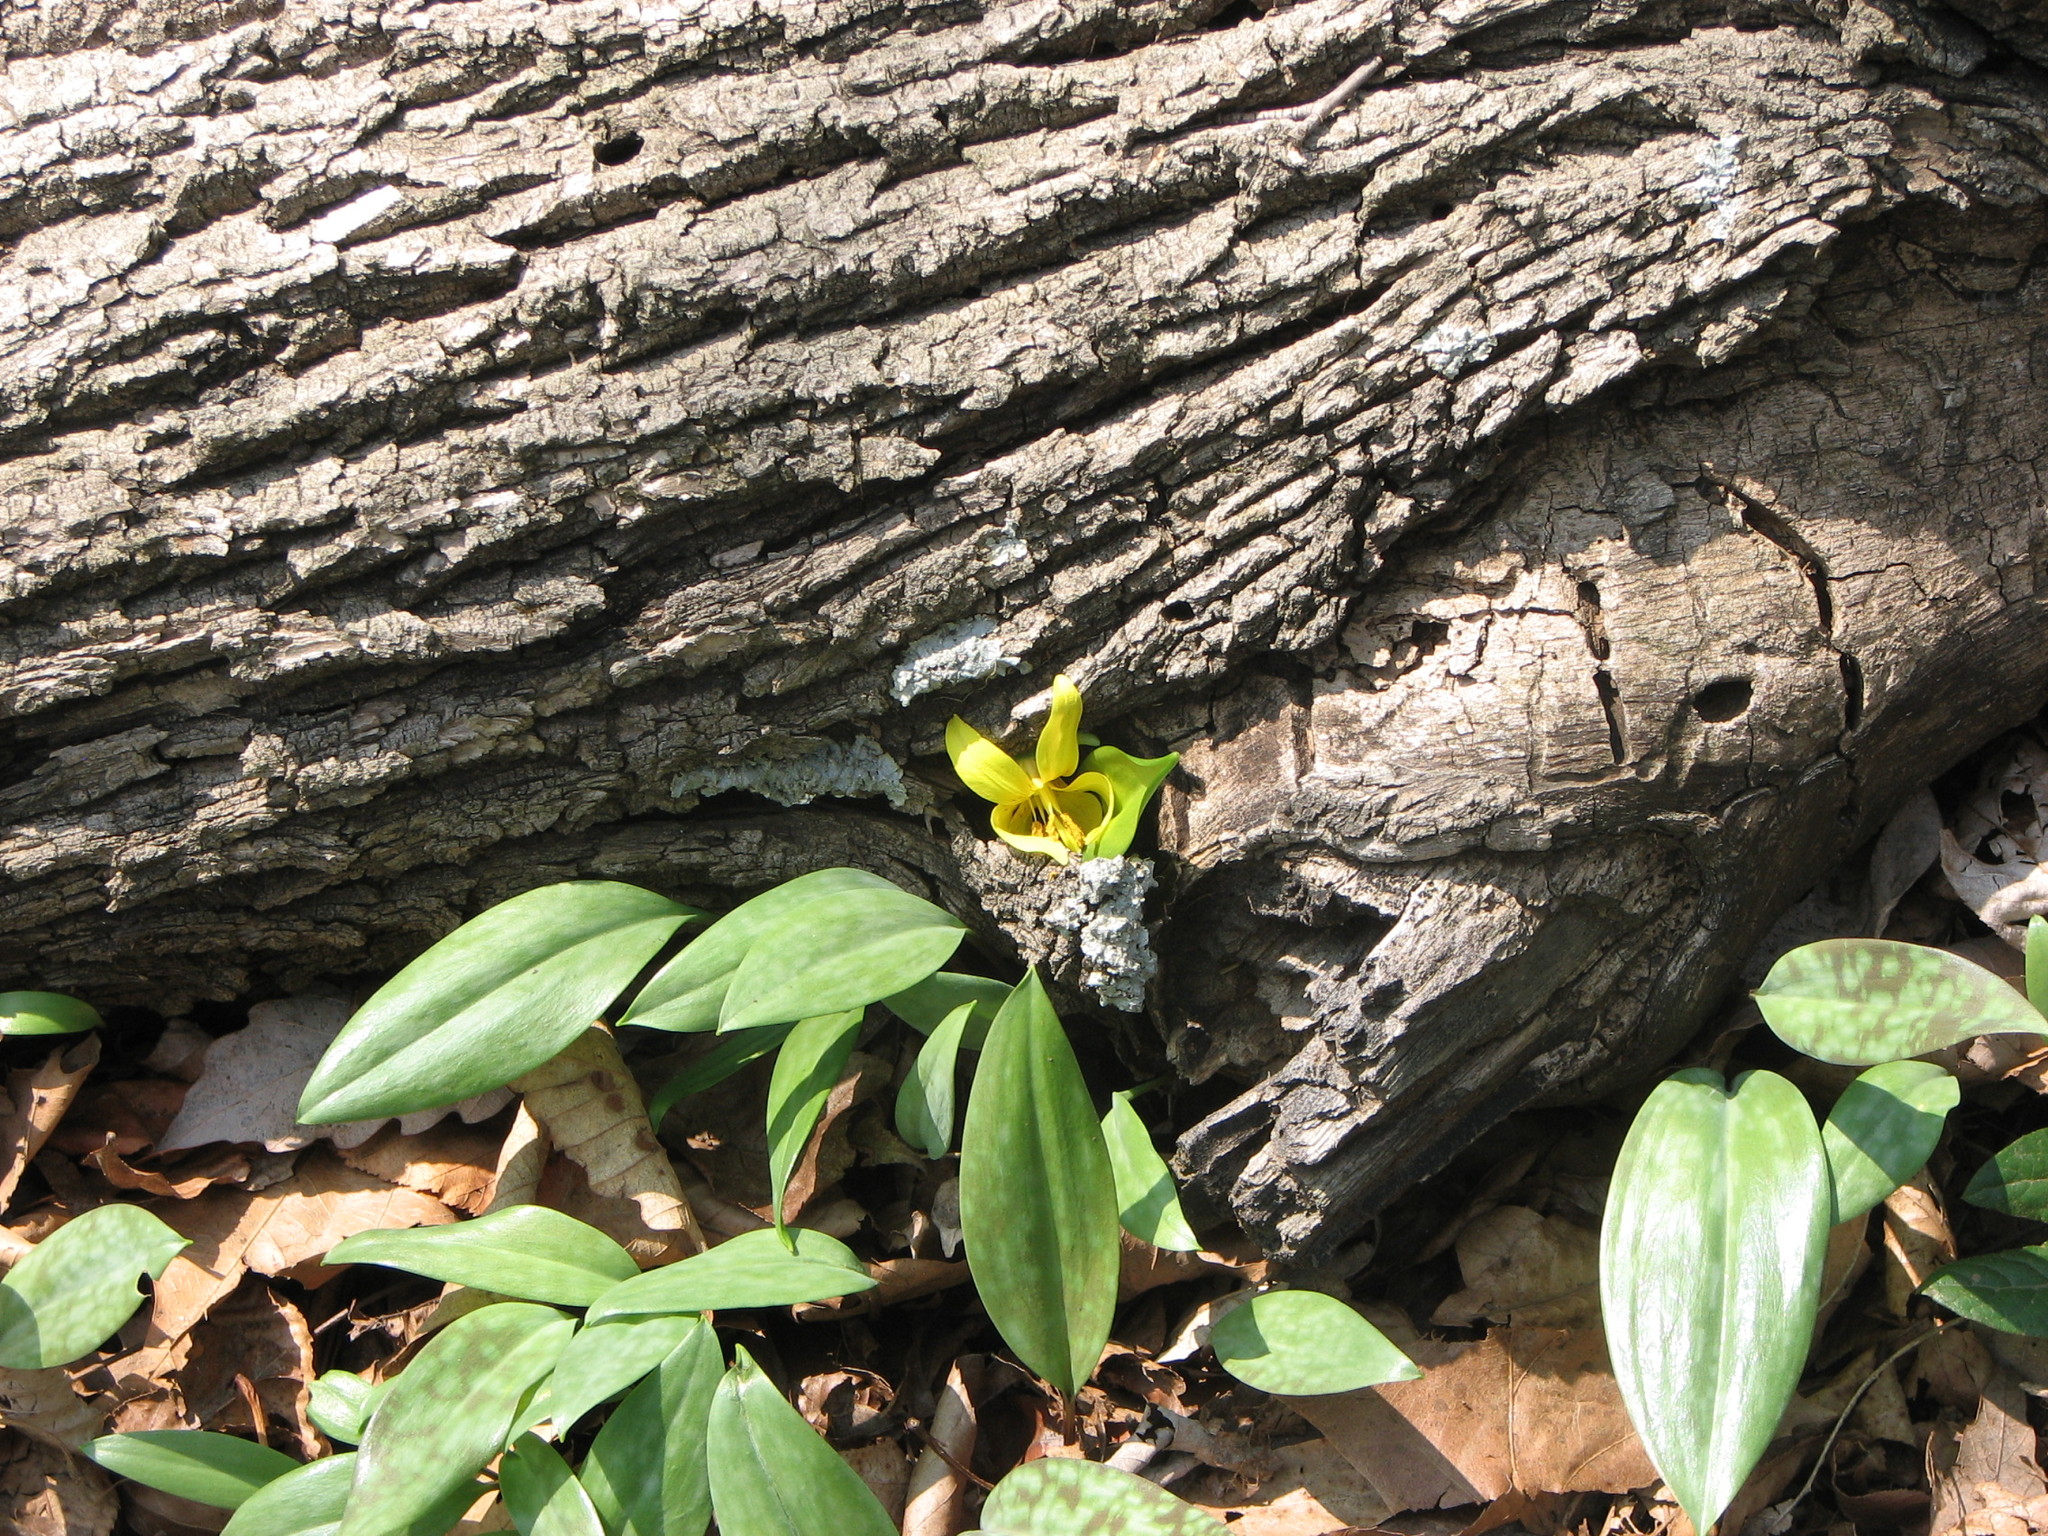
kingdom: Plantae
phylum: Tracheophyta
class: Liliopsida
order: Liliales
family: Liliaceae
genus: Erythronium
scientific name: Erythronium americanum
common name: Yellow adder's-tongue
